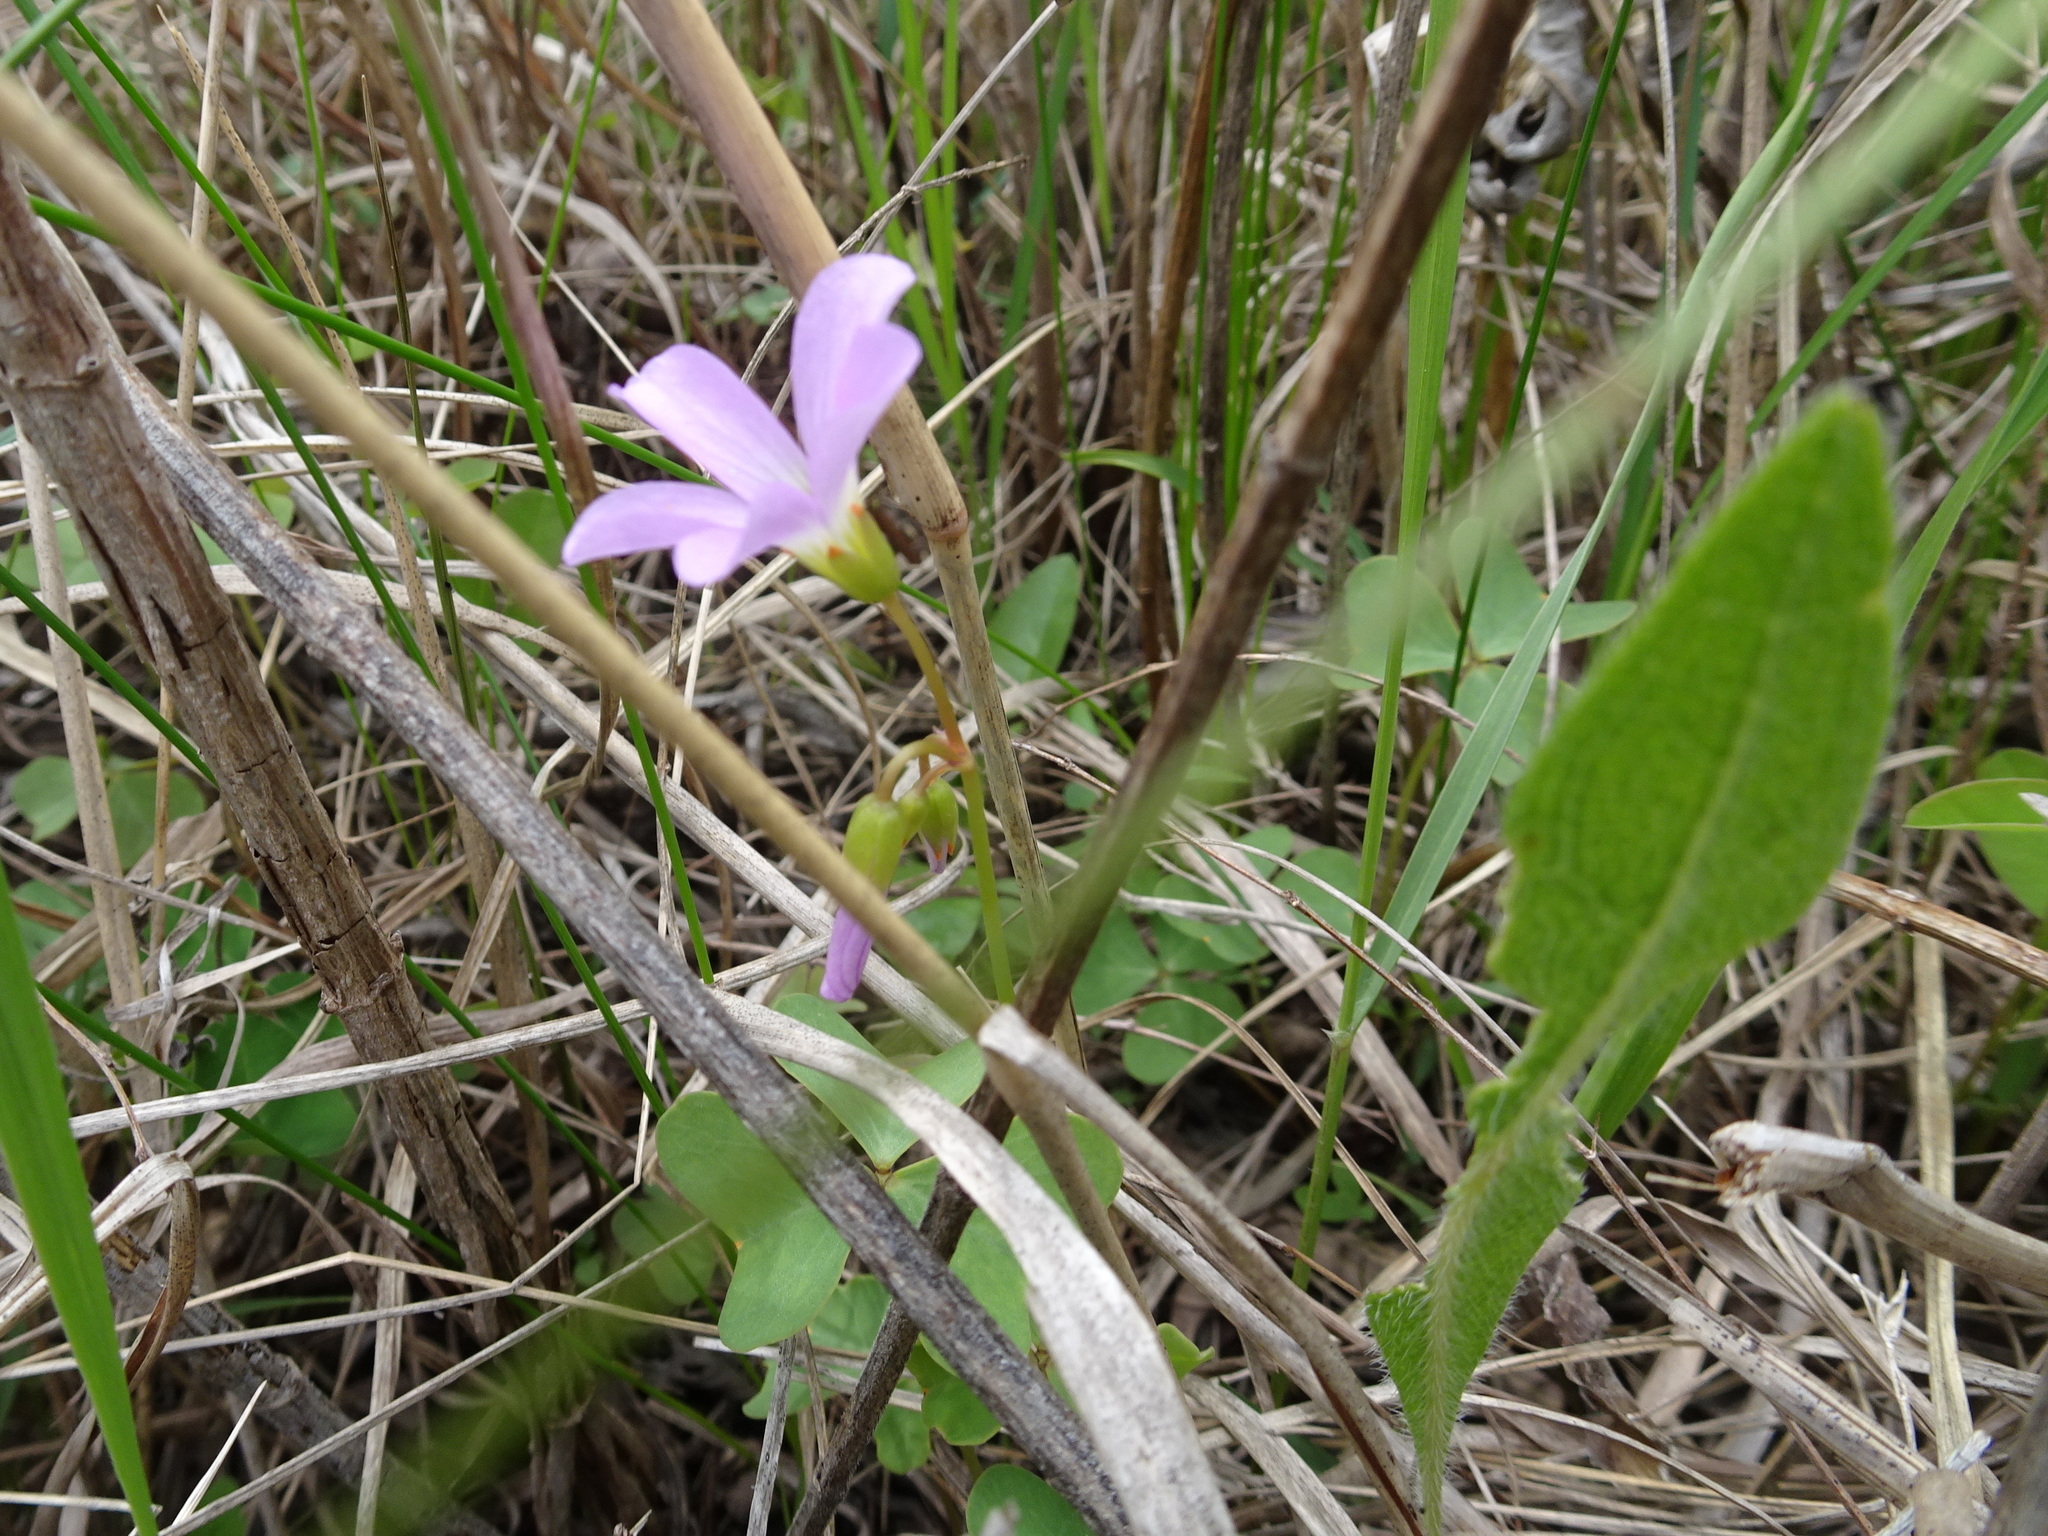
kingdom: Plantae
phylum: Tracheophyta
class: Magnoliopsida
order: Oxalidales
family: Oxalidaceae
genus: Oxalis
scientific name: Oxalis violacea
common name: Violet wood-sorrel
